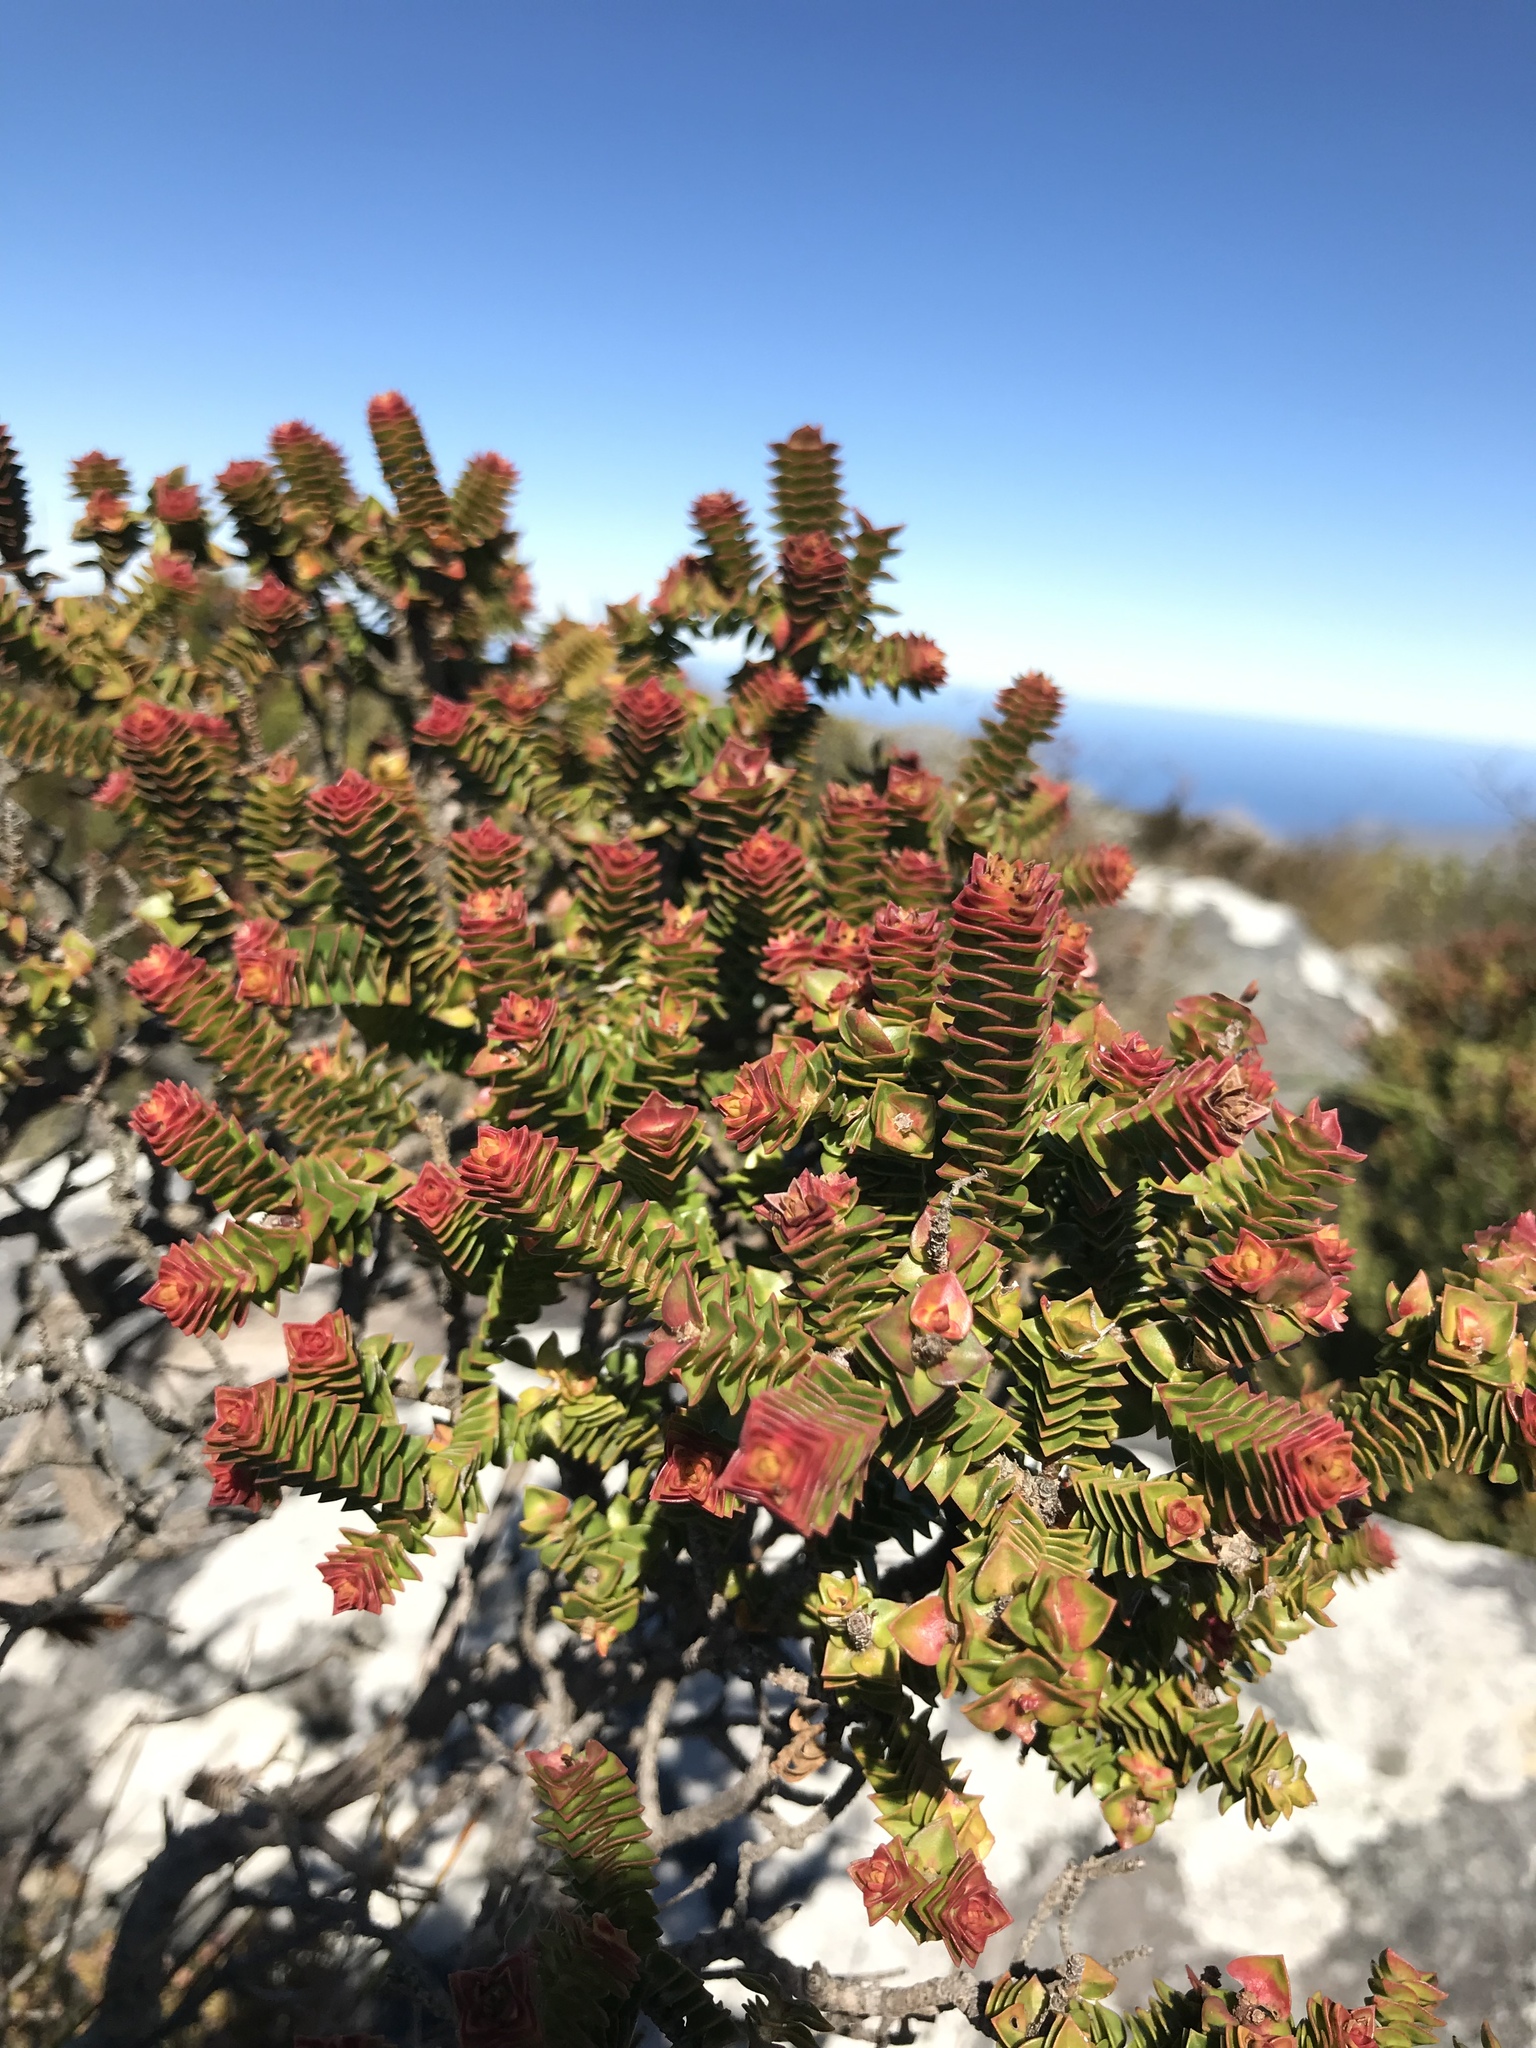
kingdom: Plantae
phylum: Tracheophyta
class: Magnoliopsida
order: Myrtales
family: Penaeaceae
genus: Penaea
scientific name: Penaea mucronata
